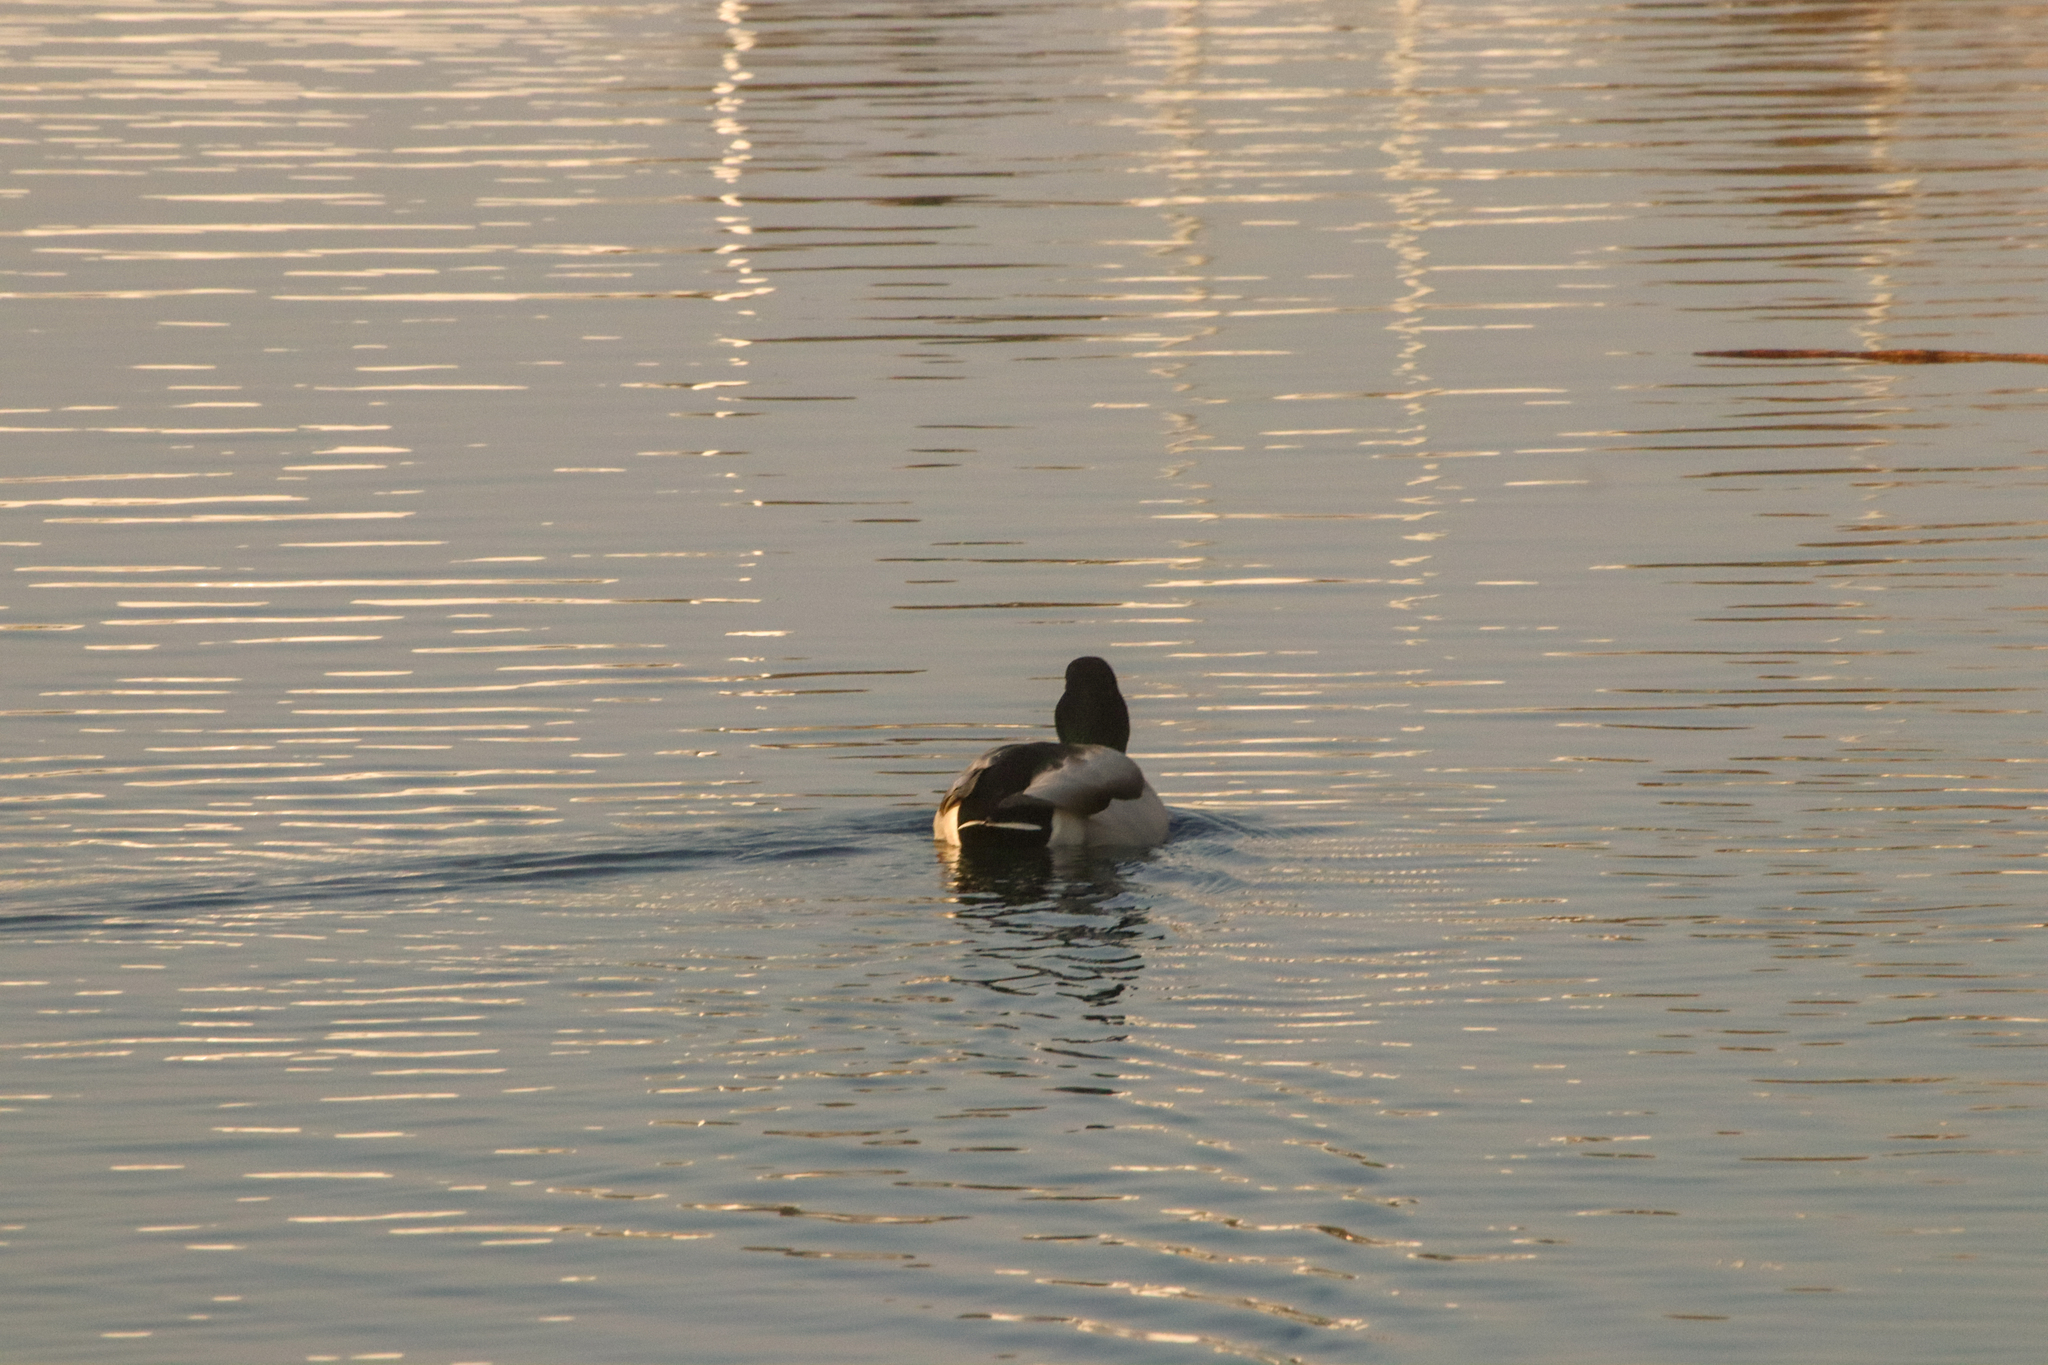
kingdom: Animalia
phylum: Chordata
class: Aves
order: Anseriformes
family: Anatidae
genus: Anas
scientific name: Anas platyrhynchos
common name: Mallard
